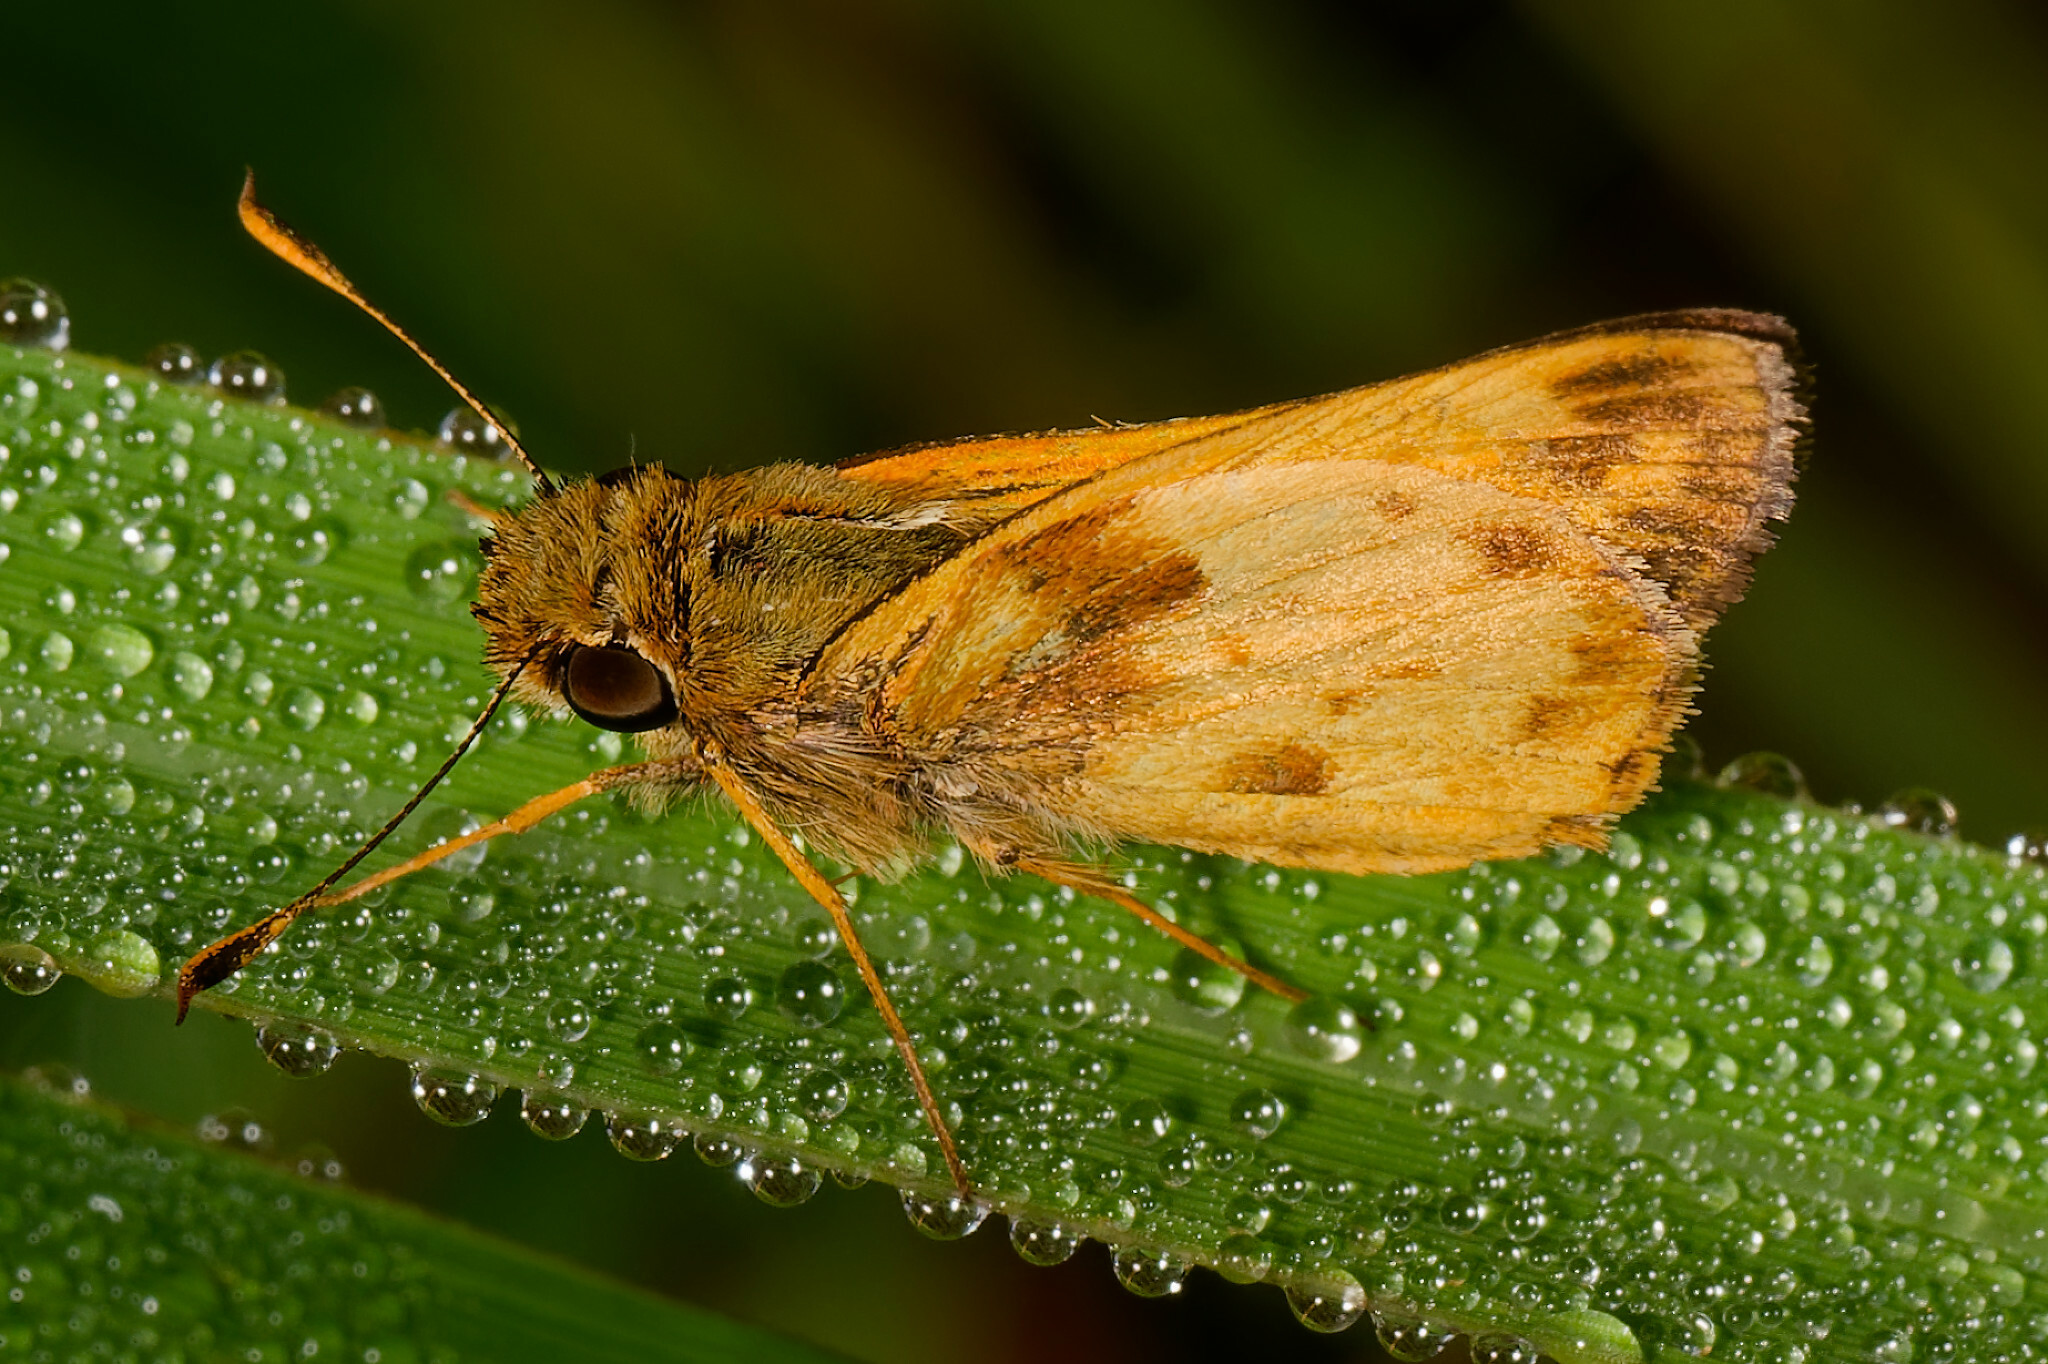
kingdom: Animalia
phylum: Arthropoda
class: Insecta
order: Lepidoptera
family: Hesperiidae
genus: Lon
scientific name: Lon zabulon
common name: Zabulon skipper
